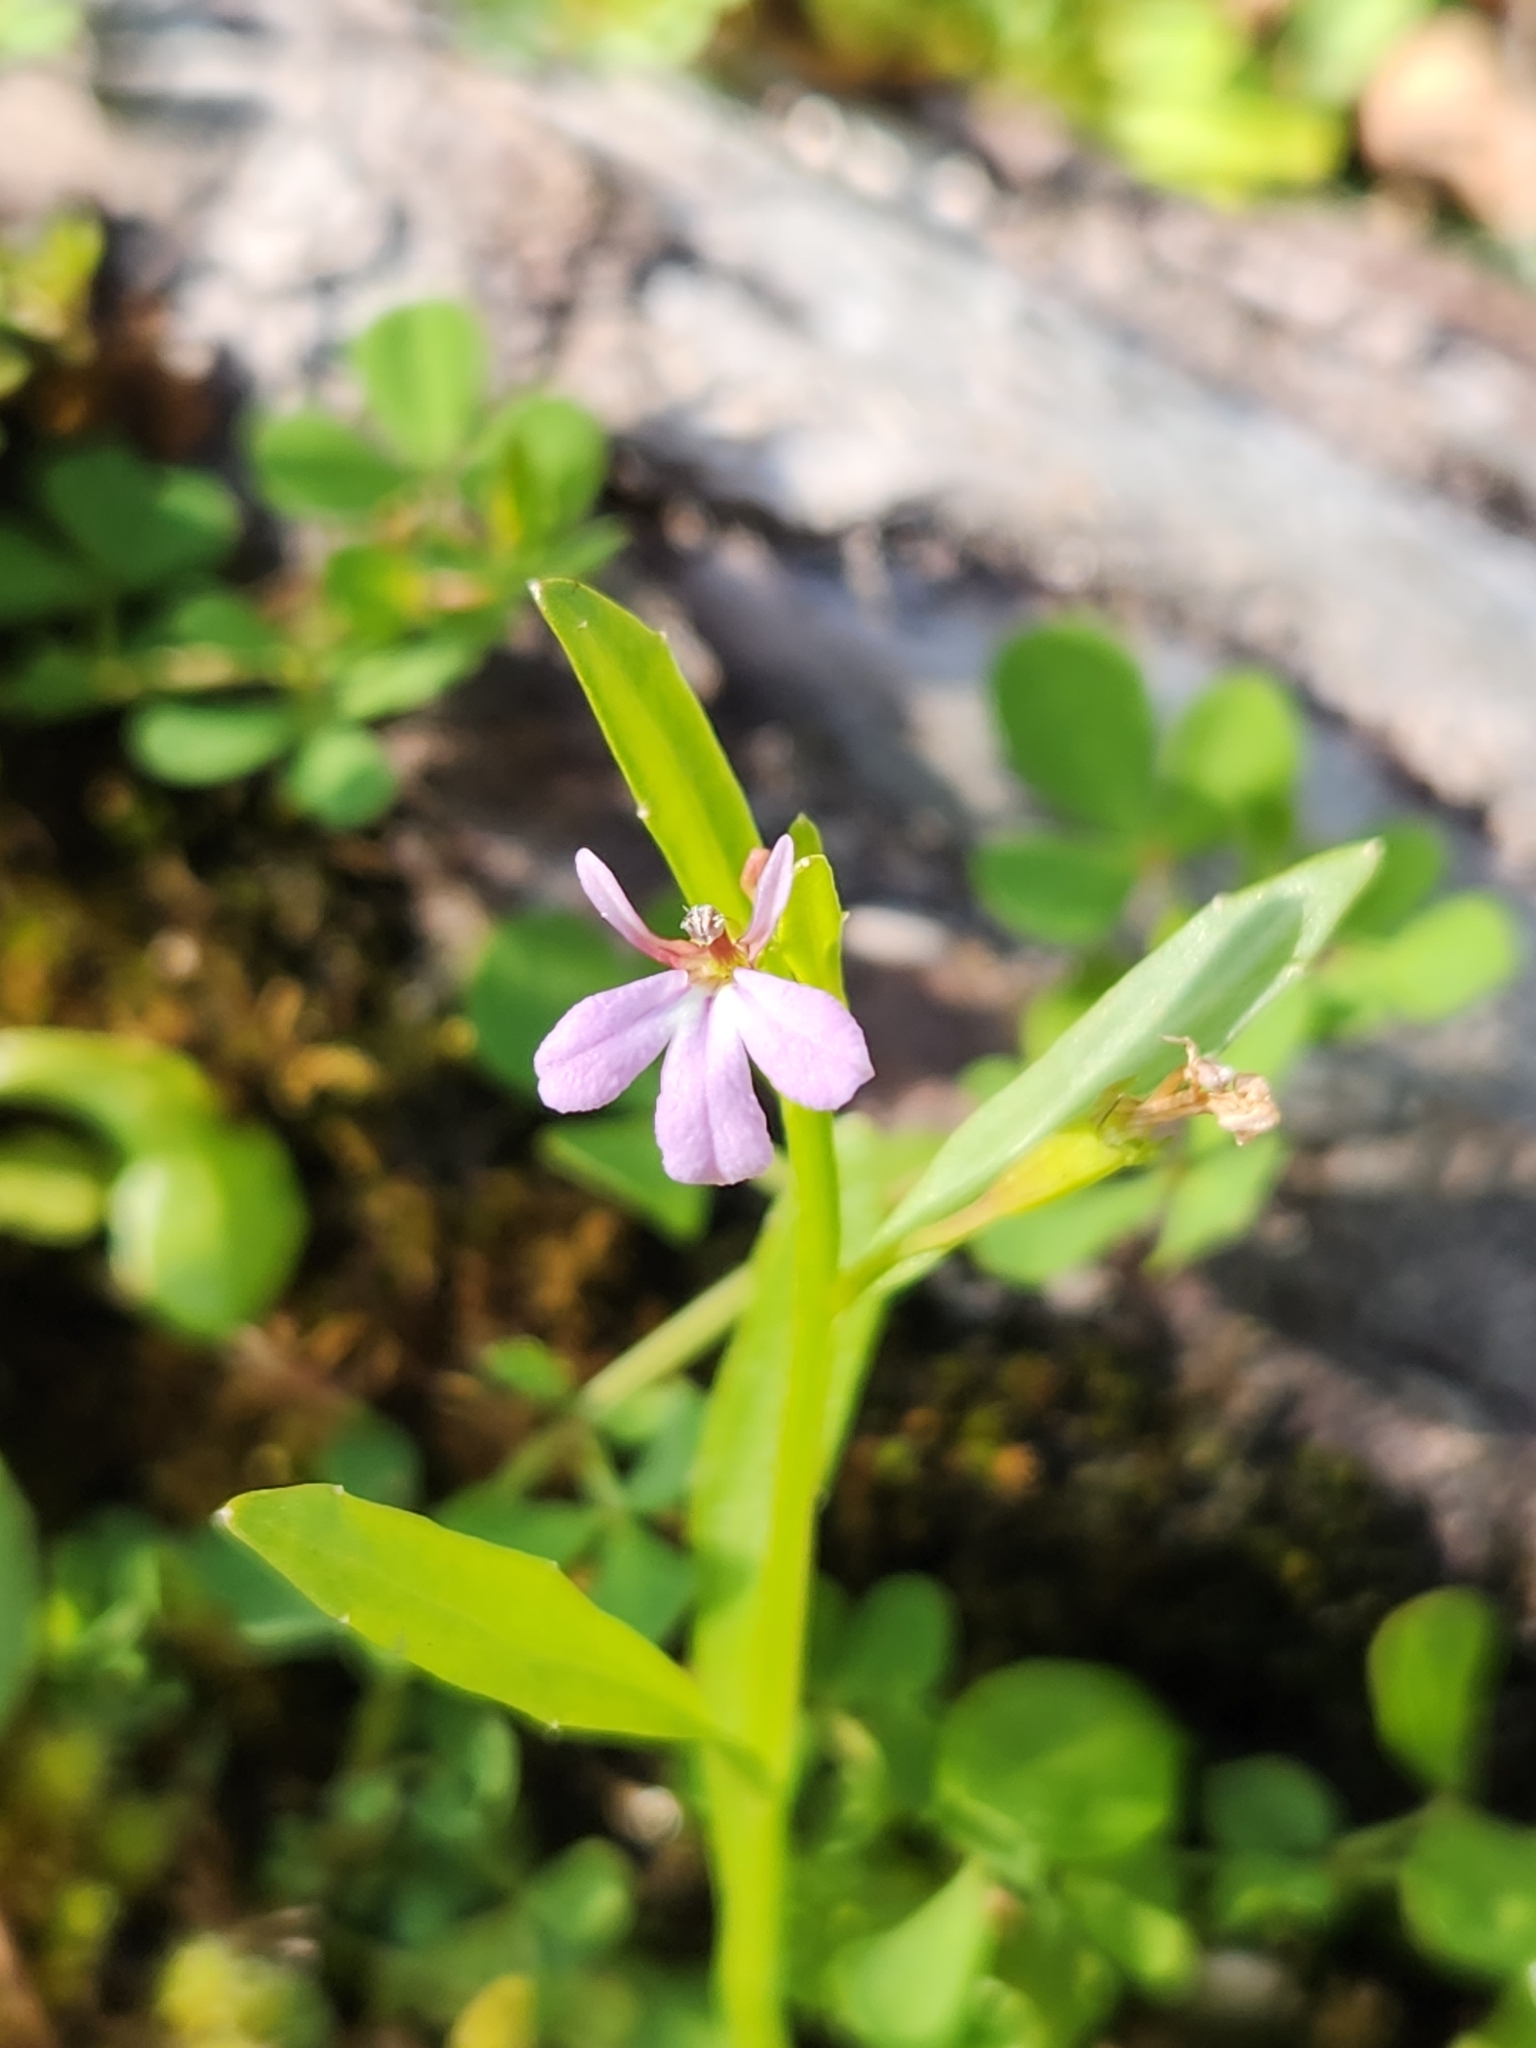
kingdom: Plantae
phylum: Tracheophyta
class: Magnoliopsida
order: Asterales
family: Campanulaceae
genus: Lobelia
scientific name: Lobelia anceps
